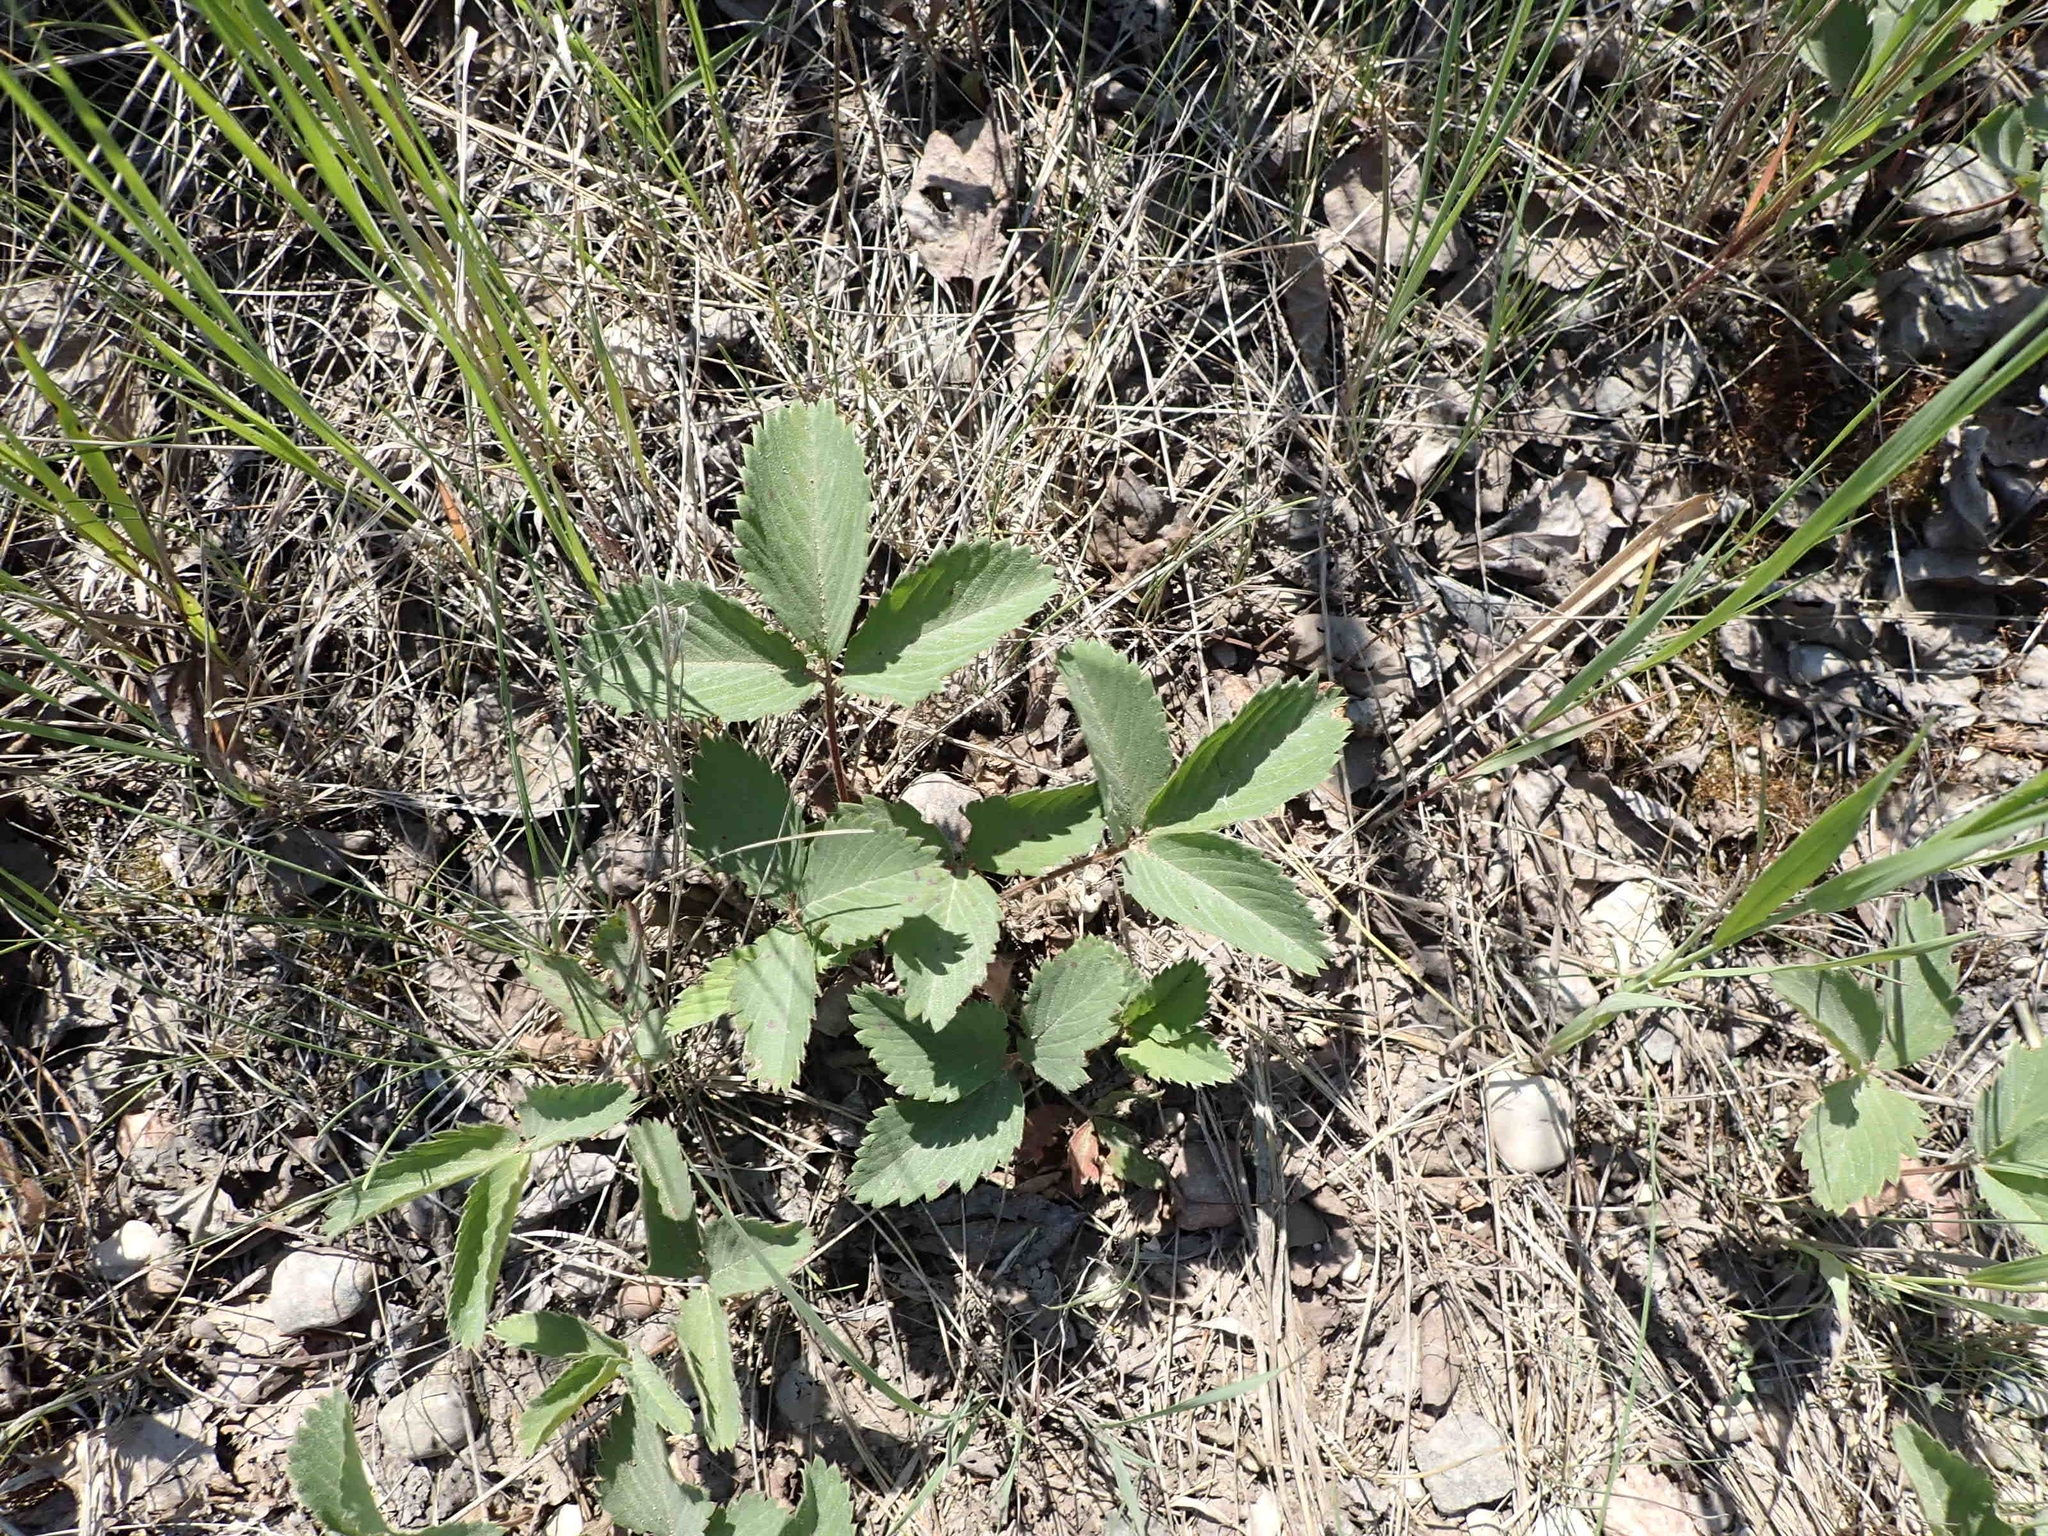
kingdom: Plantae
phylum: Tracheophyta
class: Magnoliopsida
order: Rosales
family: Rosaceae
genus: Fragaria
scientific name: Fragaria virginiana
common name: Thickleaved wild strawberry
